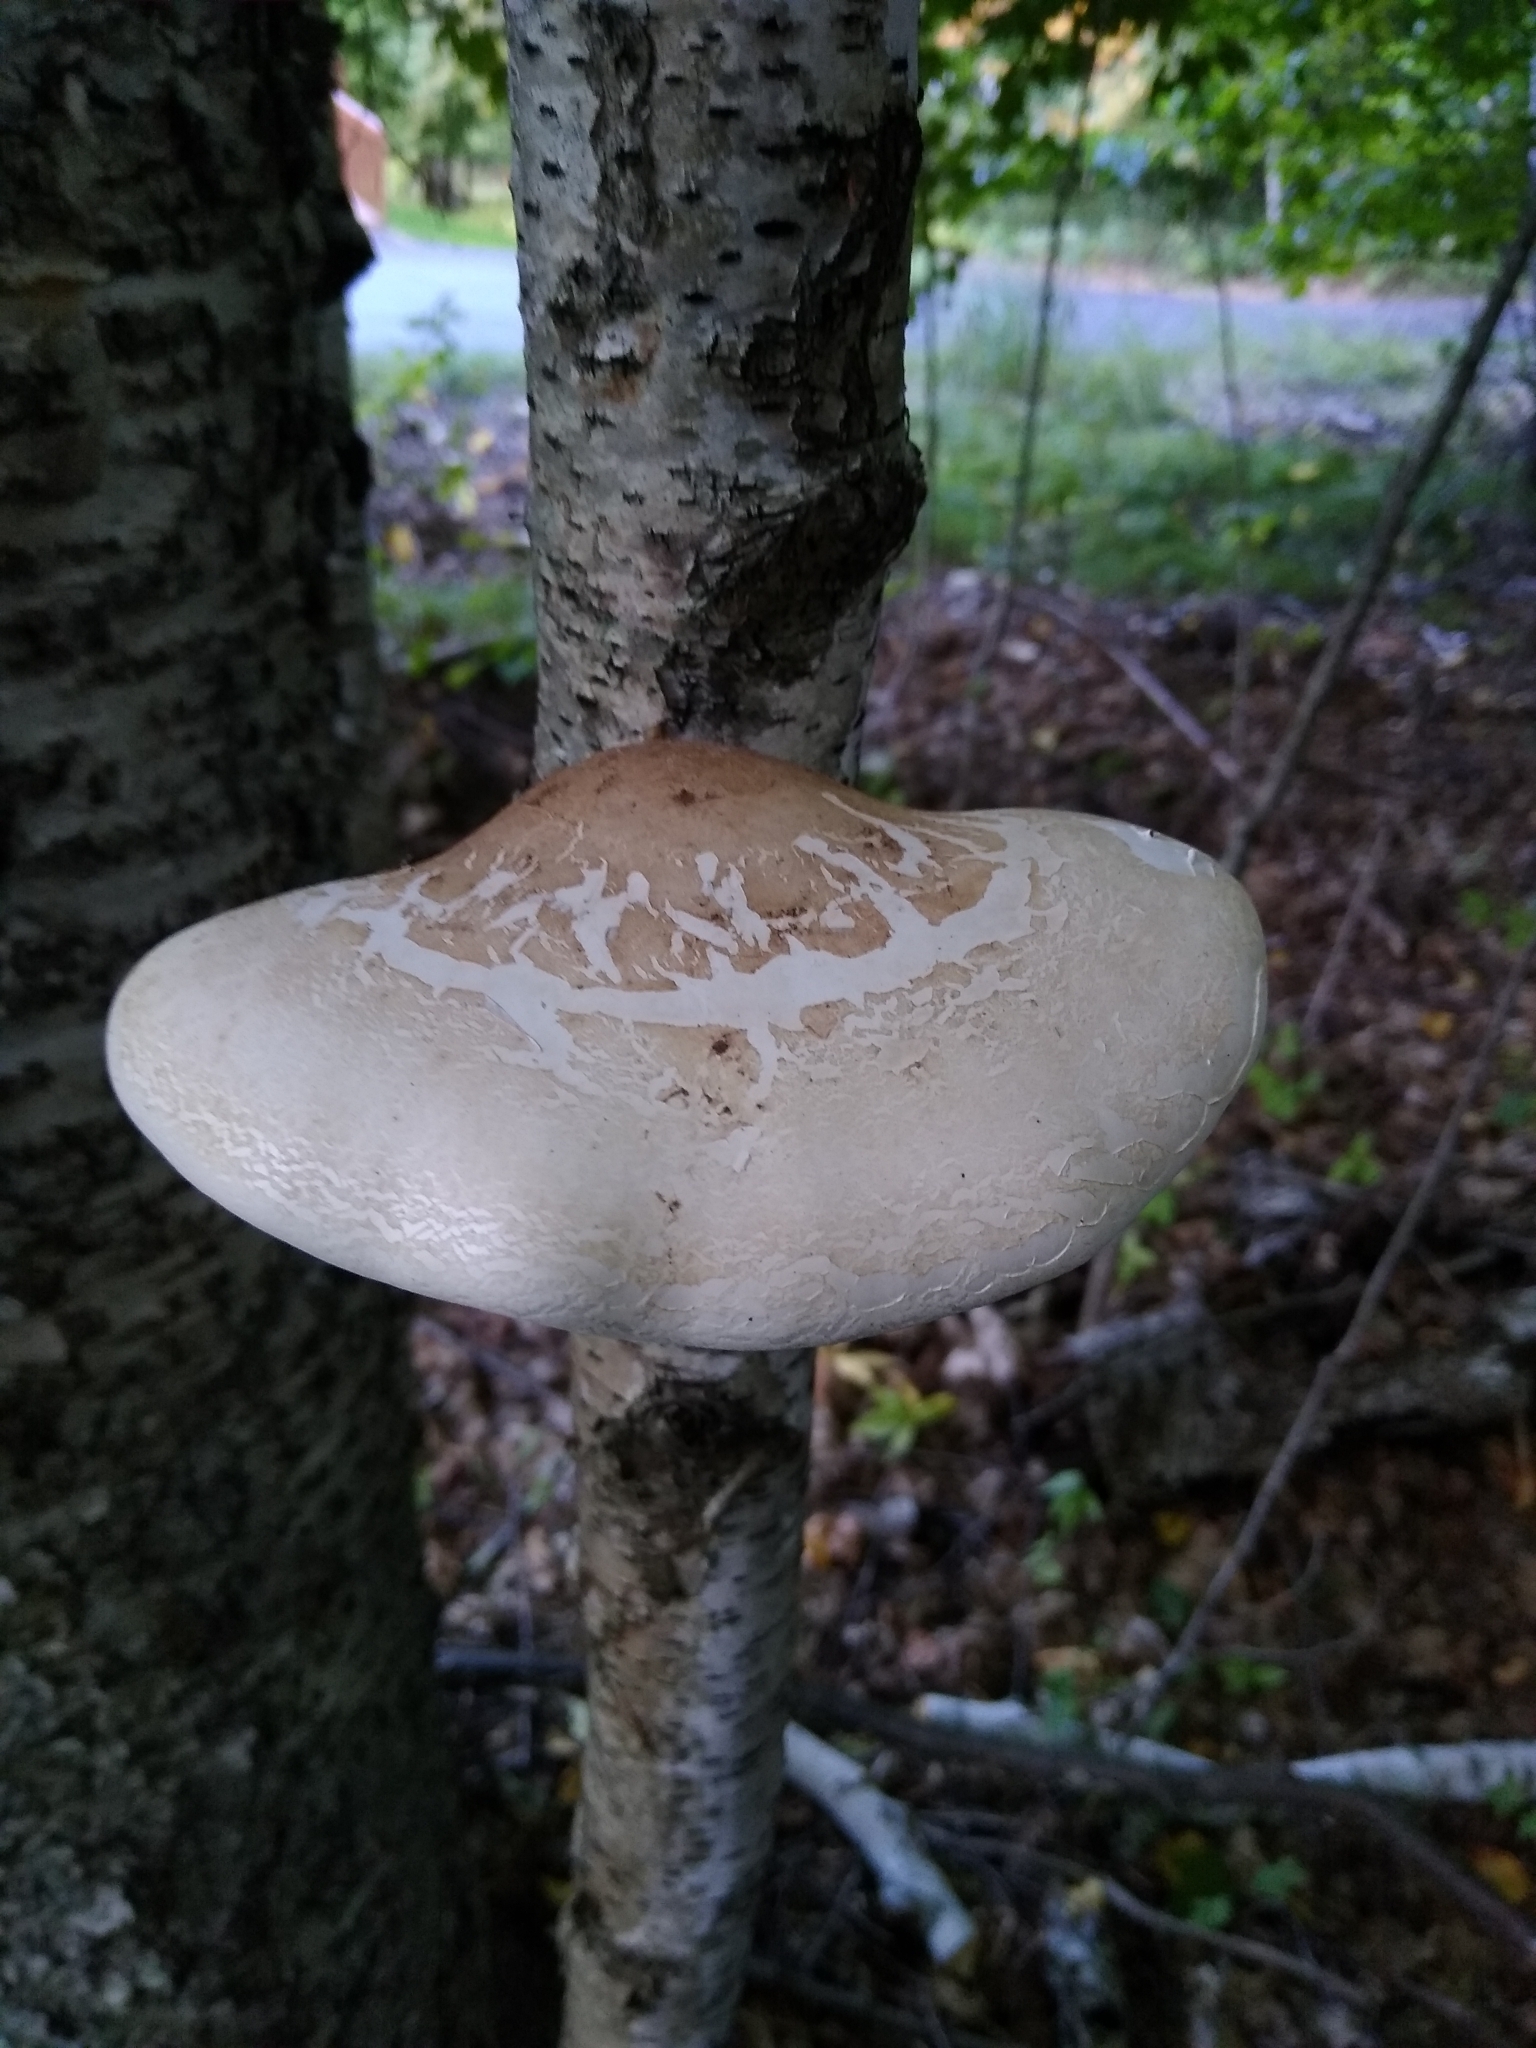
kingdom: Fungi
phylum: Basidiomycota
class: Agaricomycetes
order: Polyporales
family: Fomitopsidaceae
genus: Fomitopsis
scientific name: Fomitopsis betulina
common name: Birch polypore
